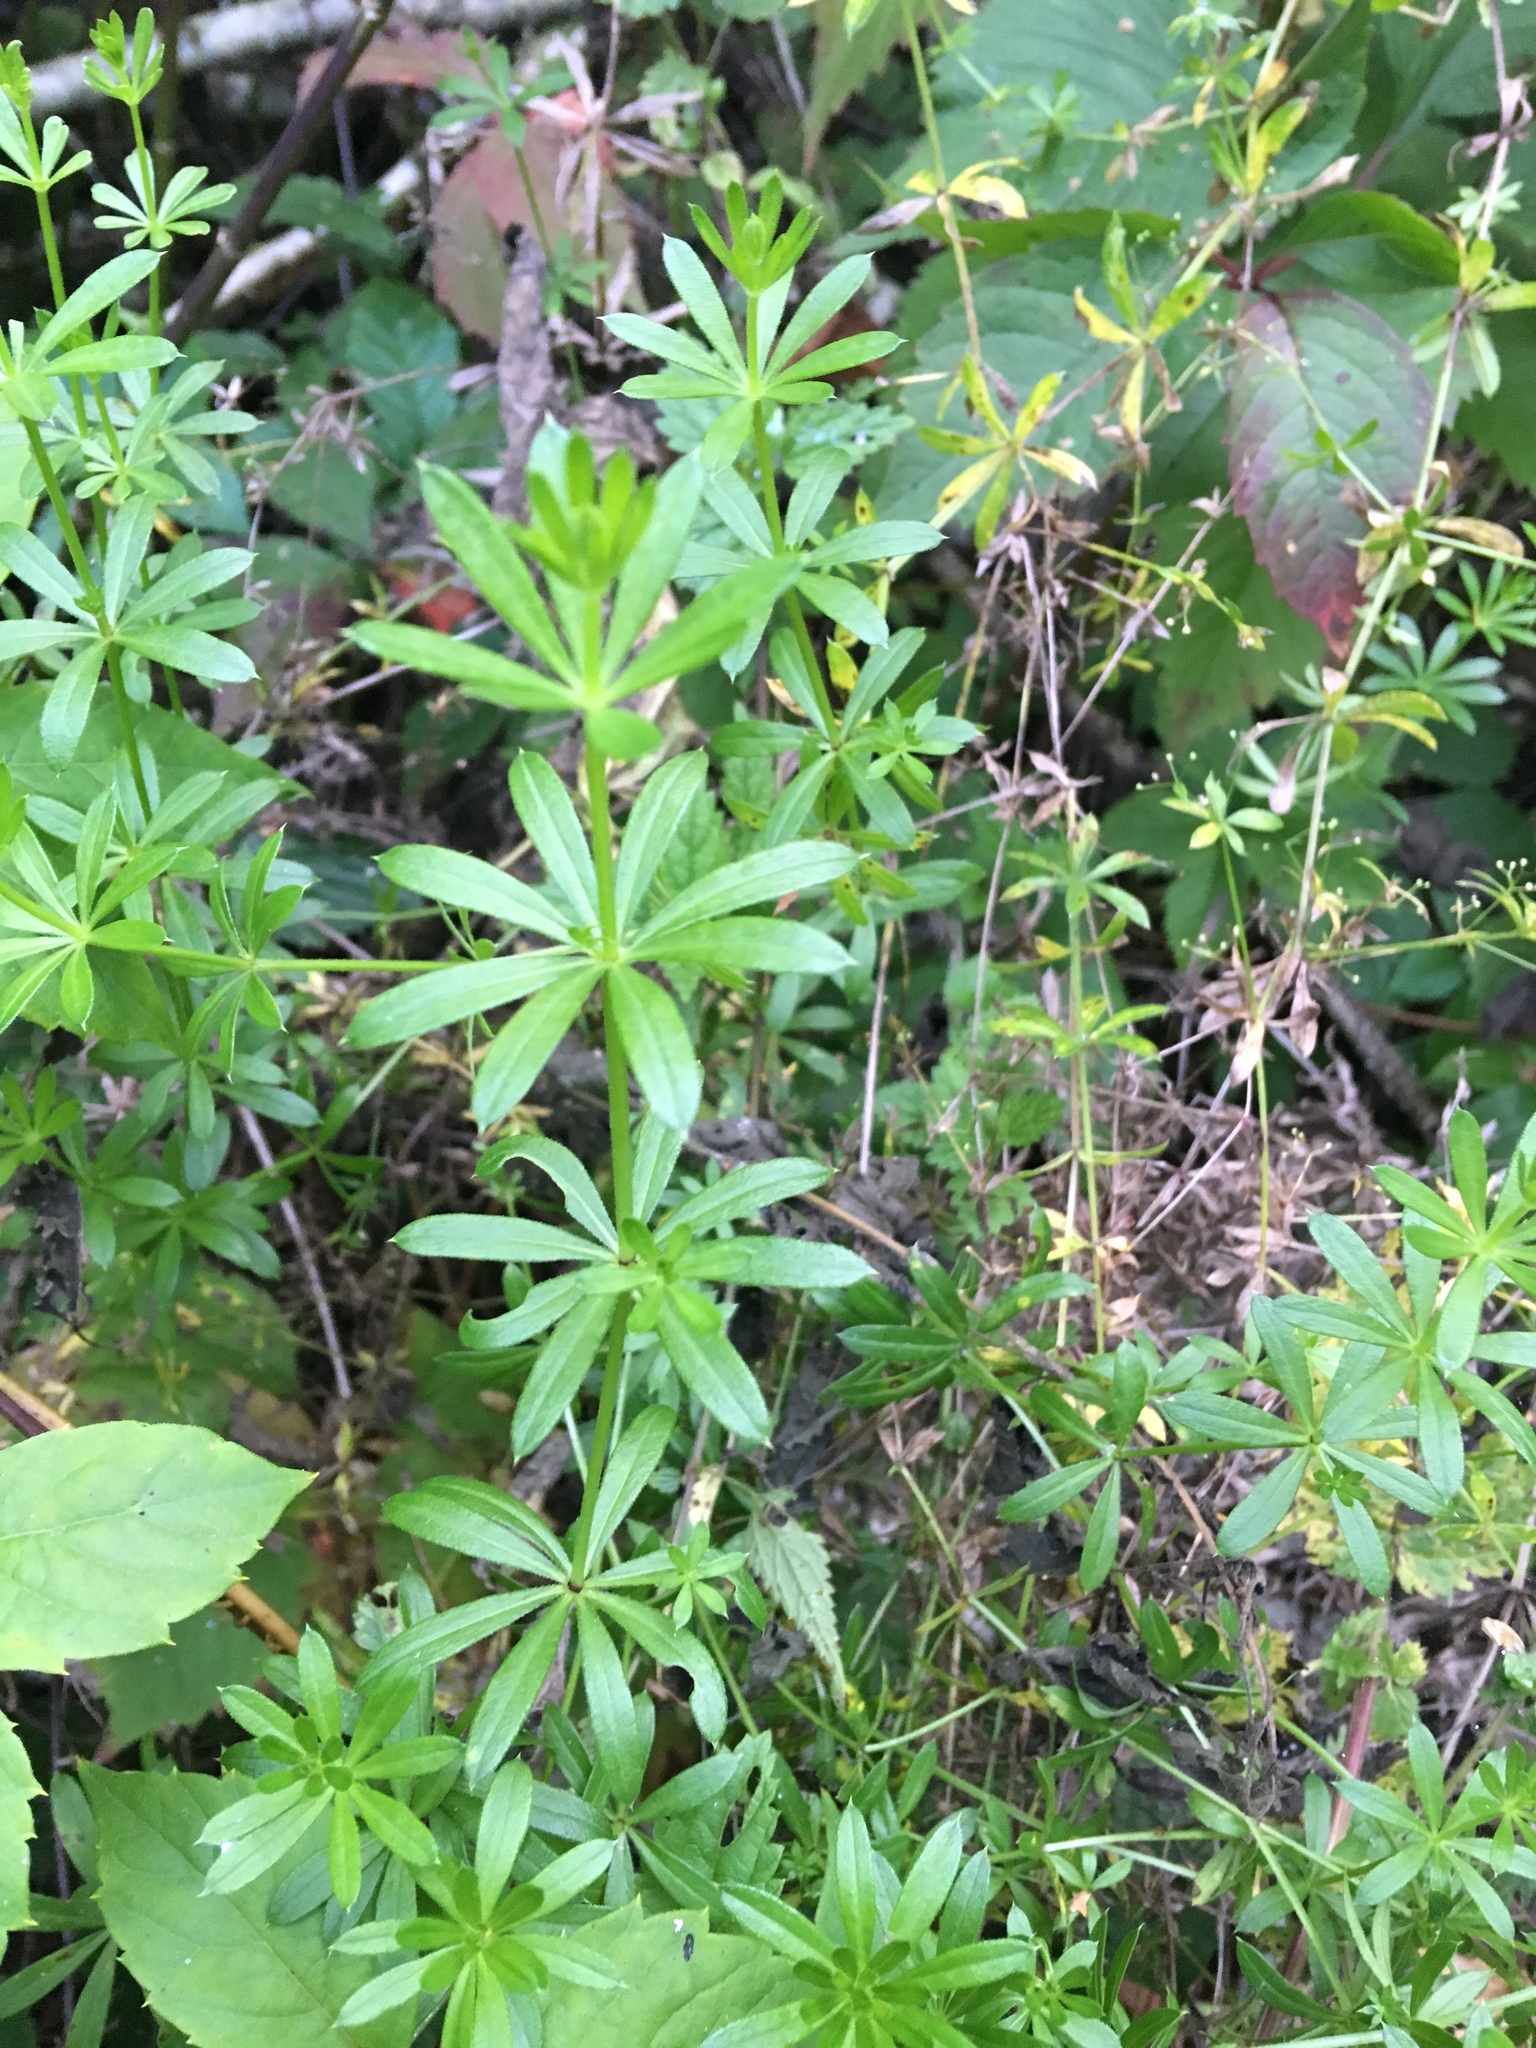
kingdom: Plantae
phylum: Tracheophyta
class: Magnoliopsida
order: Gentianales
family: Rubiaceae
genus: Galium
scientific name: Galium rivale
